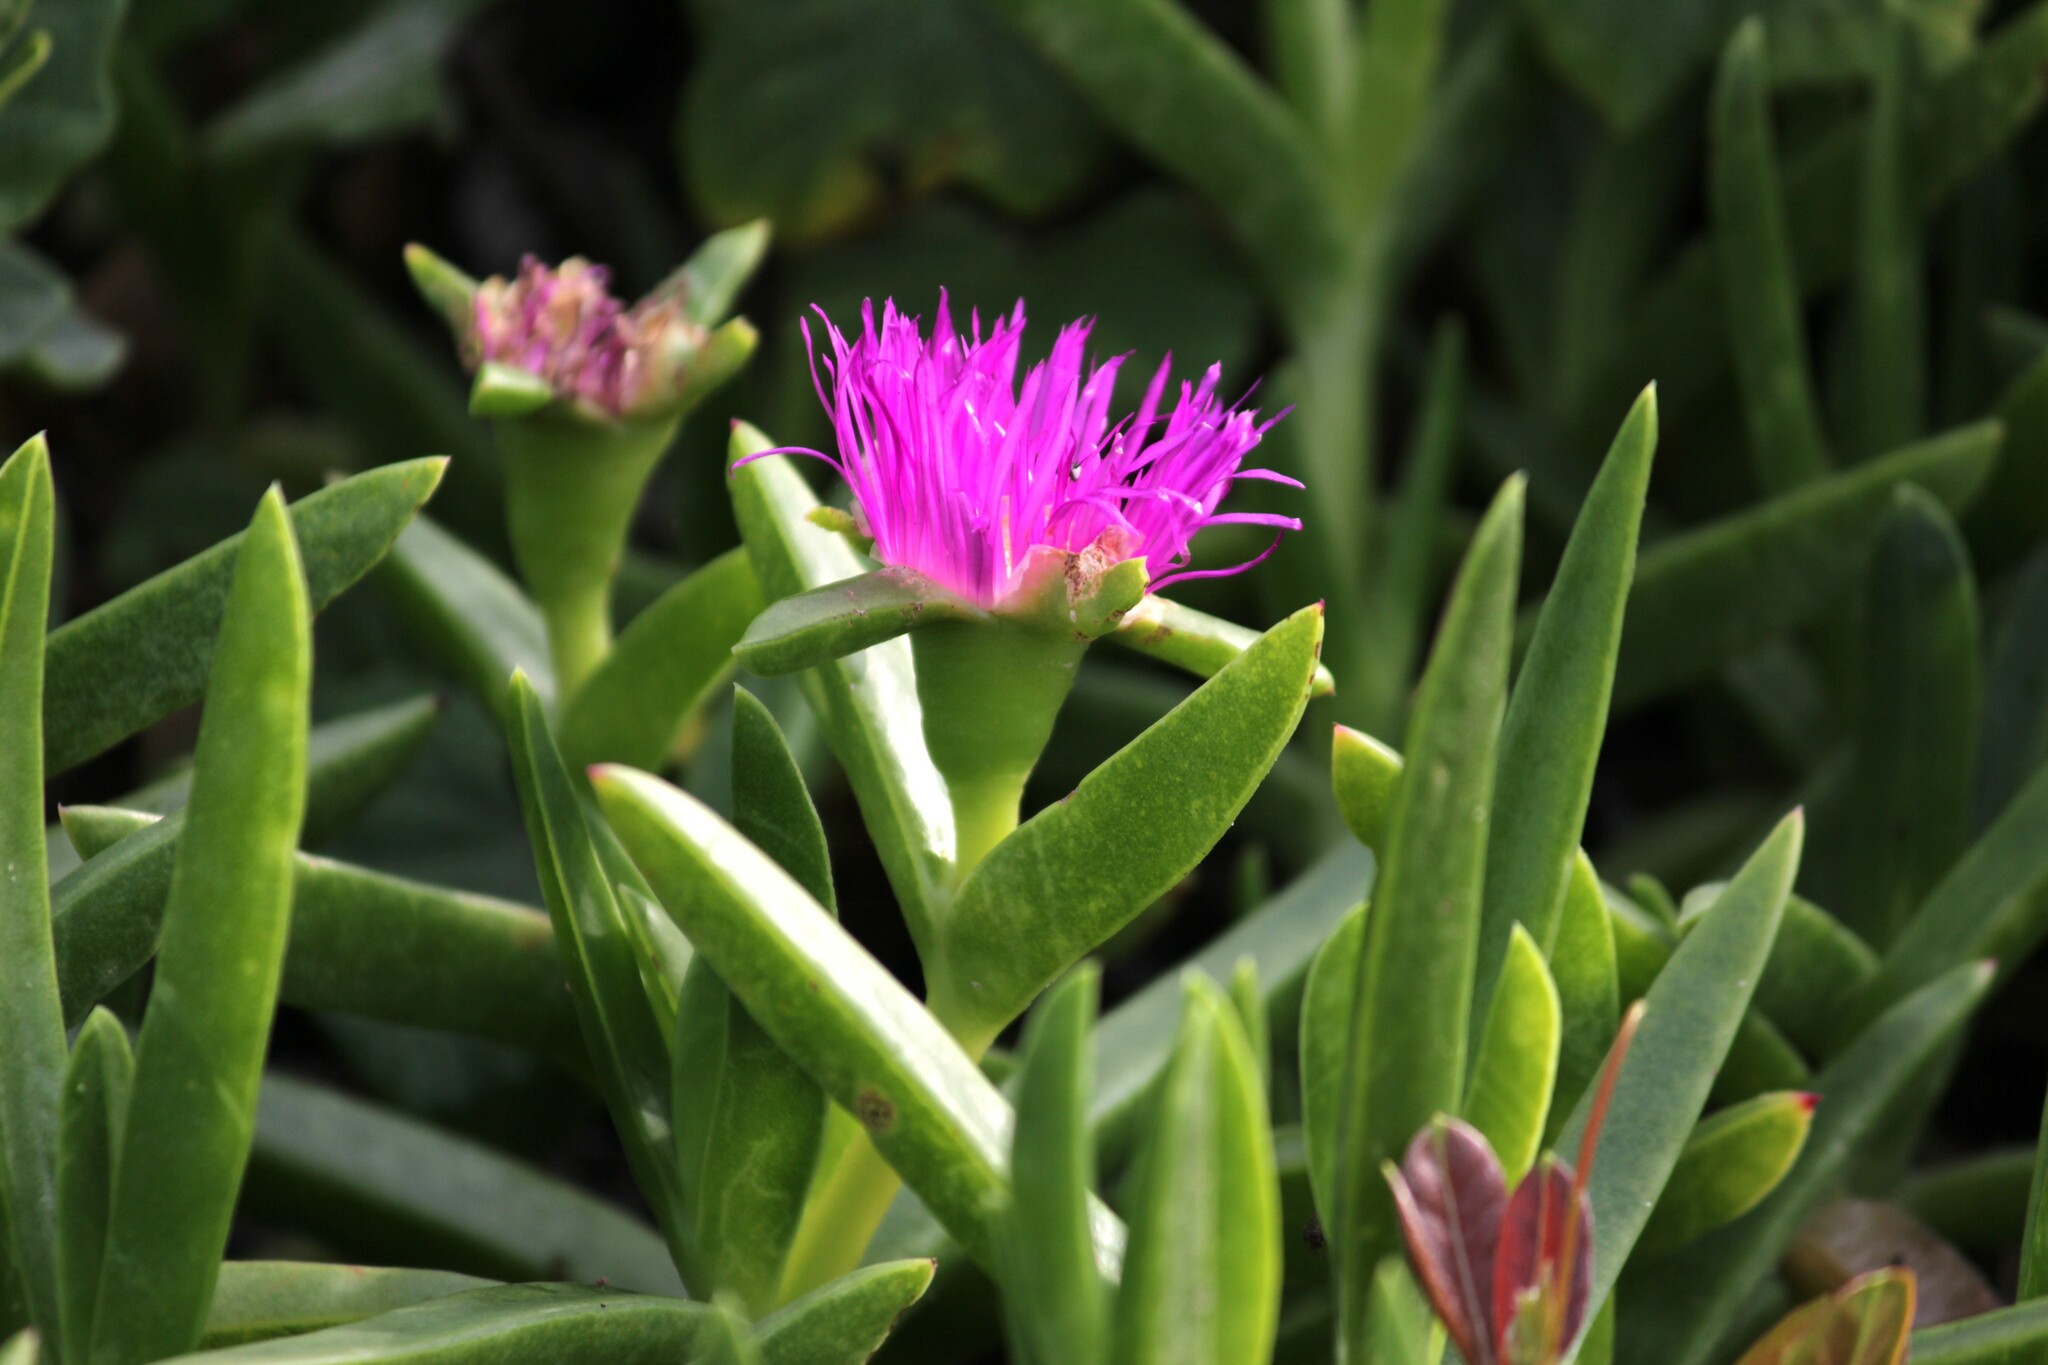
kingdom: Plantae
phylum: Tracheophyta
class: Magnoliopsida
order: Caryophyllales
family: Aizoaceae
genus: Carpobrotus
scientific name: Carpobrotus dimidiatus
